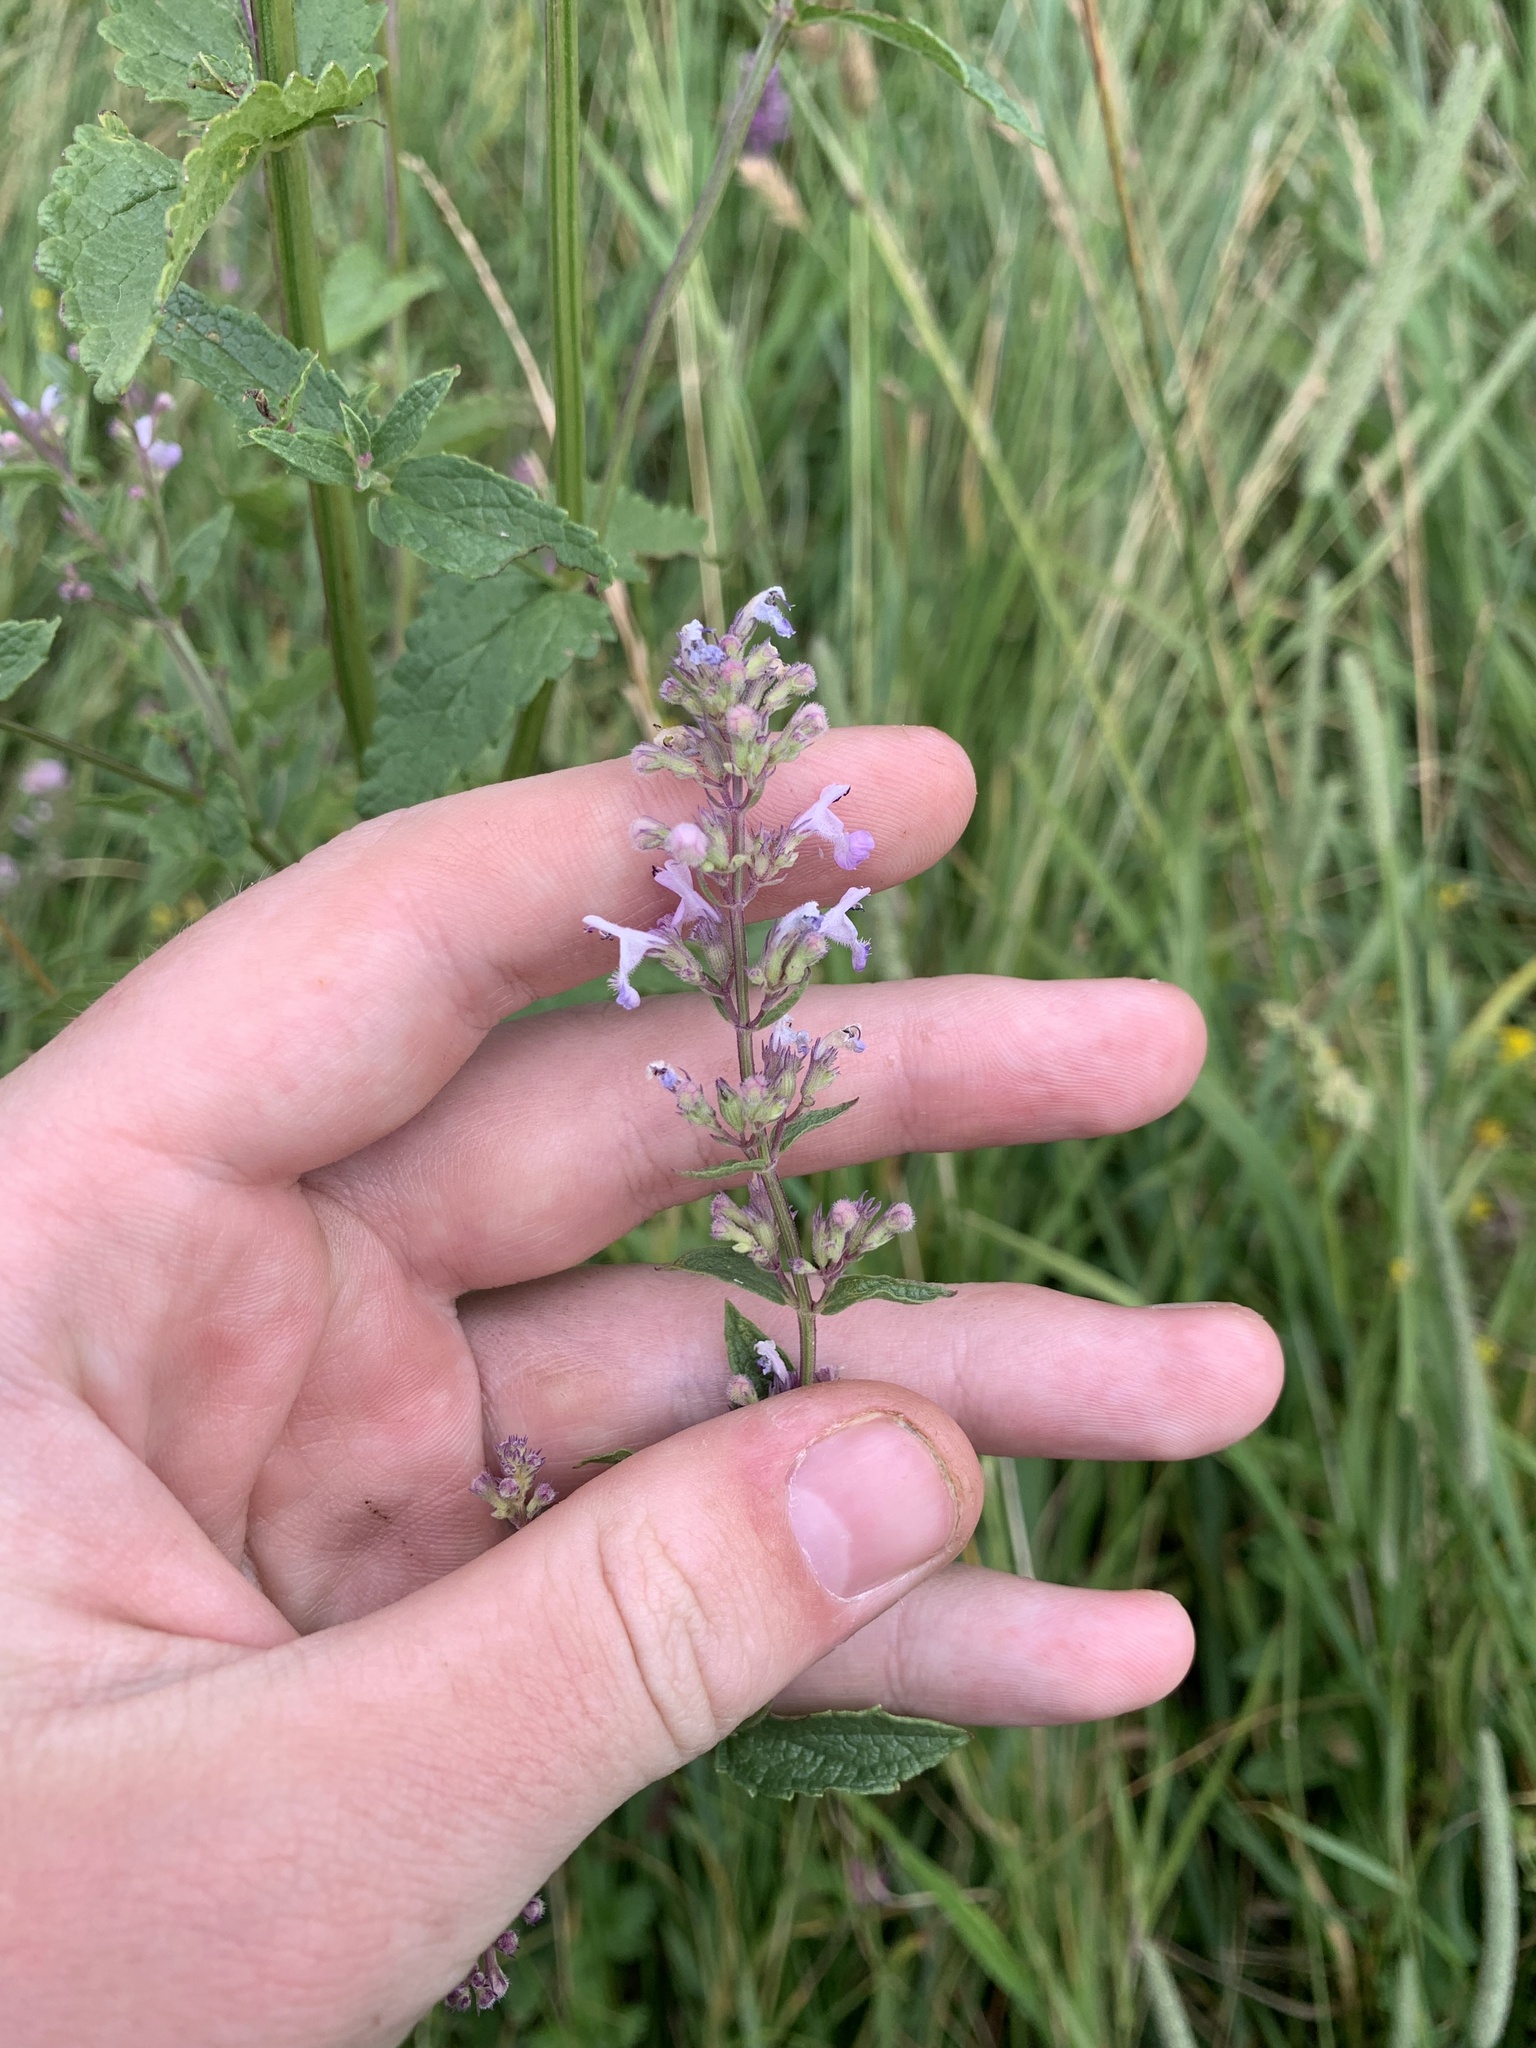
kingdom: Plantae
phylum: Tracheophyta
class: Magnoliopsida
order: Lamiales
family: Lamiaceae
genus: Nepeta
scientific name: Nepeta nuda
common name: Hairless catmint
